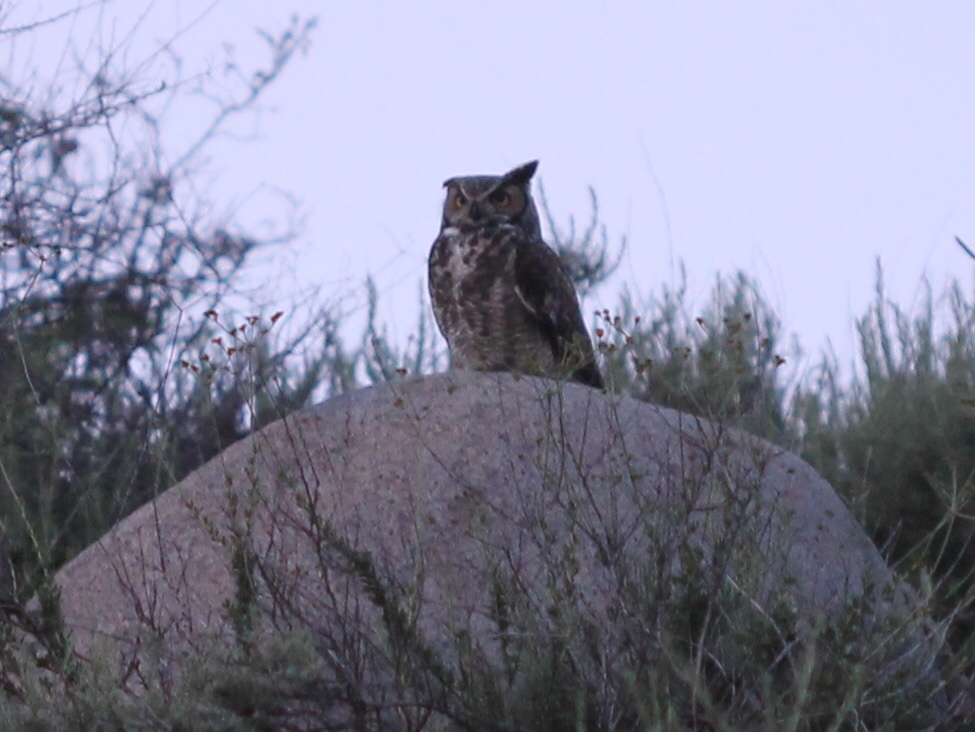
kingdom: Animalia
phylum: Chordata
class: Aves
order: Strigiformes
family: Strigidae
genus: Bubo
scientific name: Bubo virginianus
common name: Great horned owl
